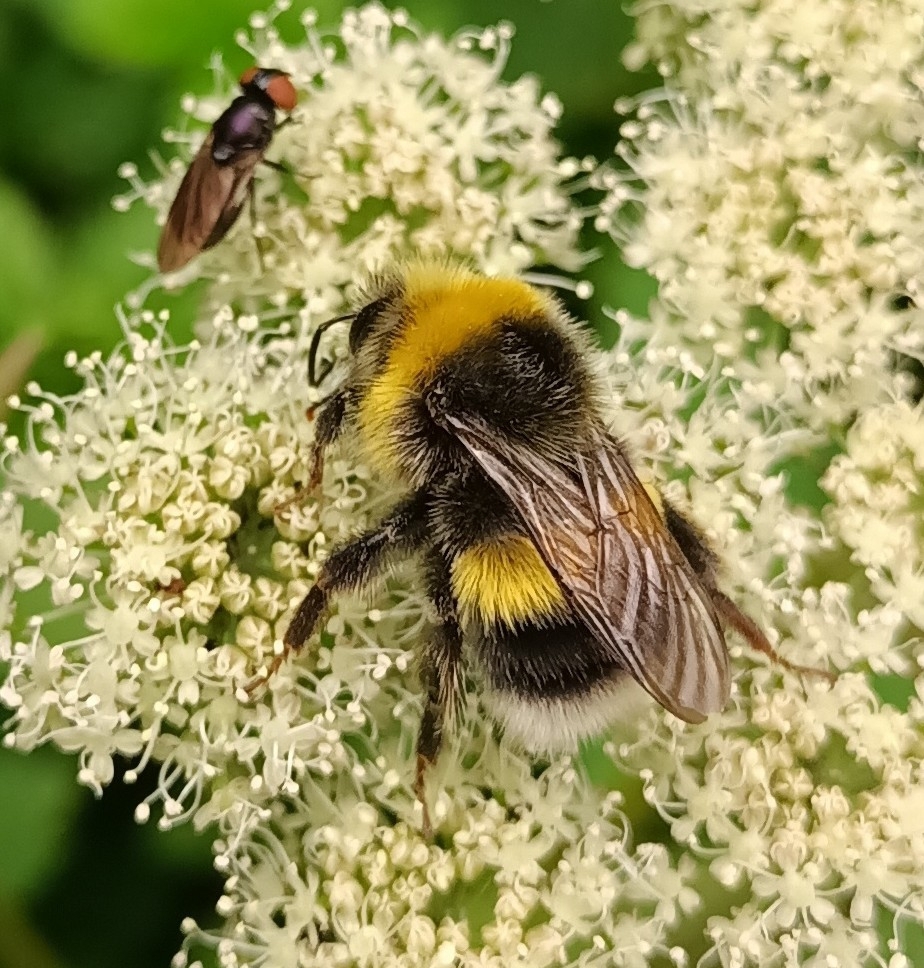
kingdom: Animalia
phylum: Arthropoda
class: Insecta
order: Hymenoptera
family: Apidae
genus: Bombus
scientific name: Bombus lucorum
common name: White-tailed bumblebee
